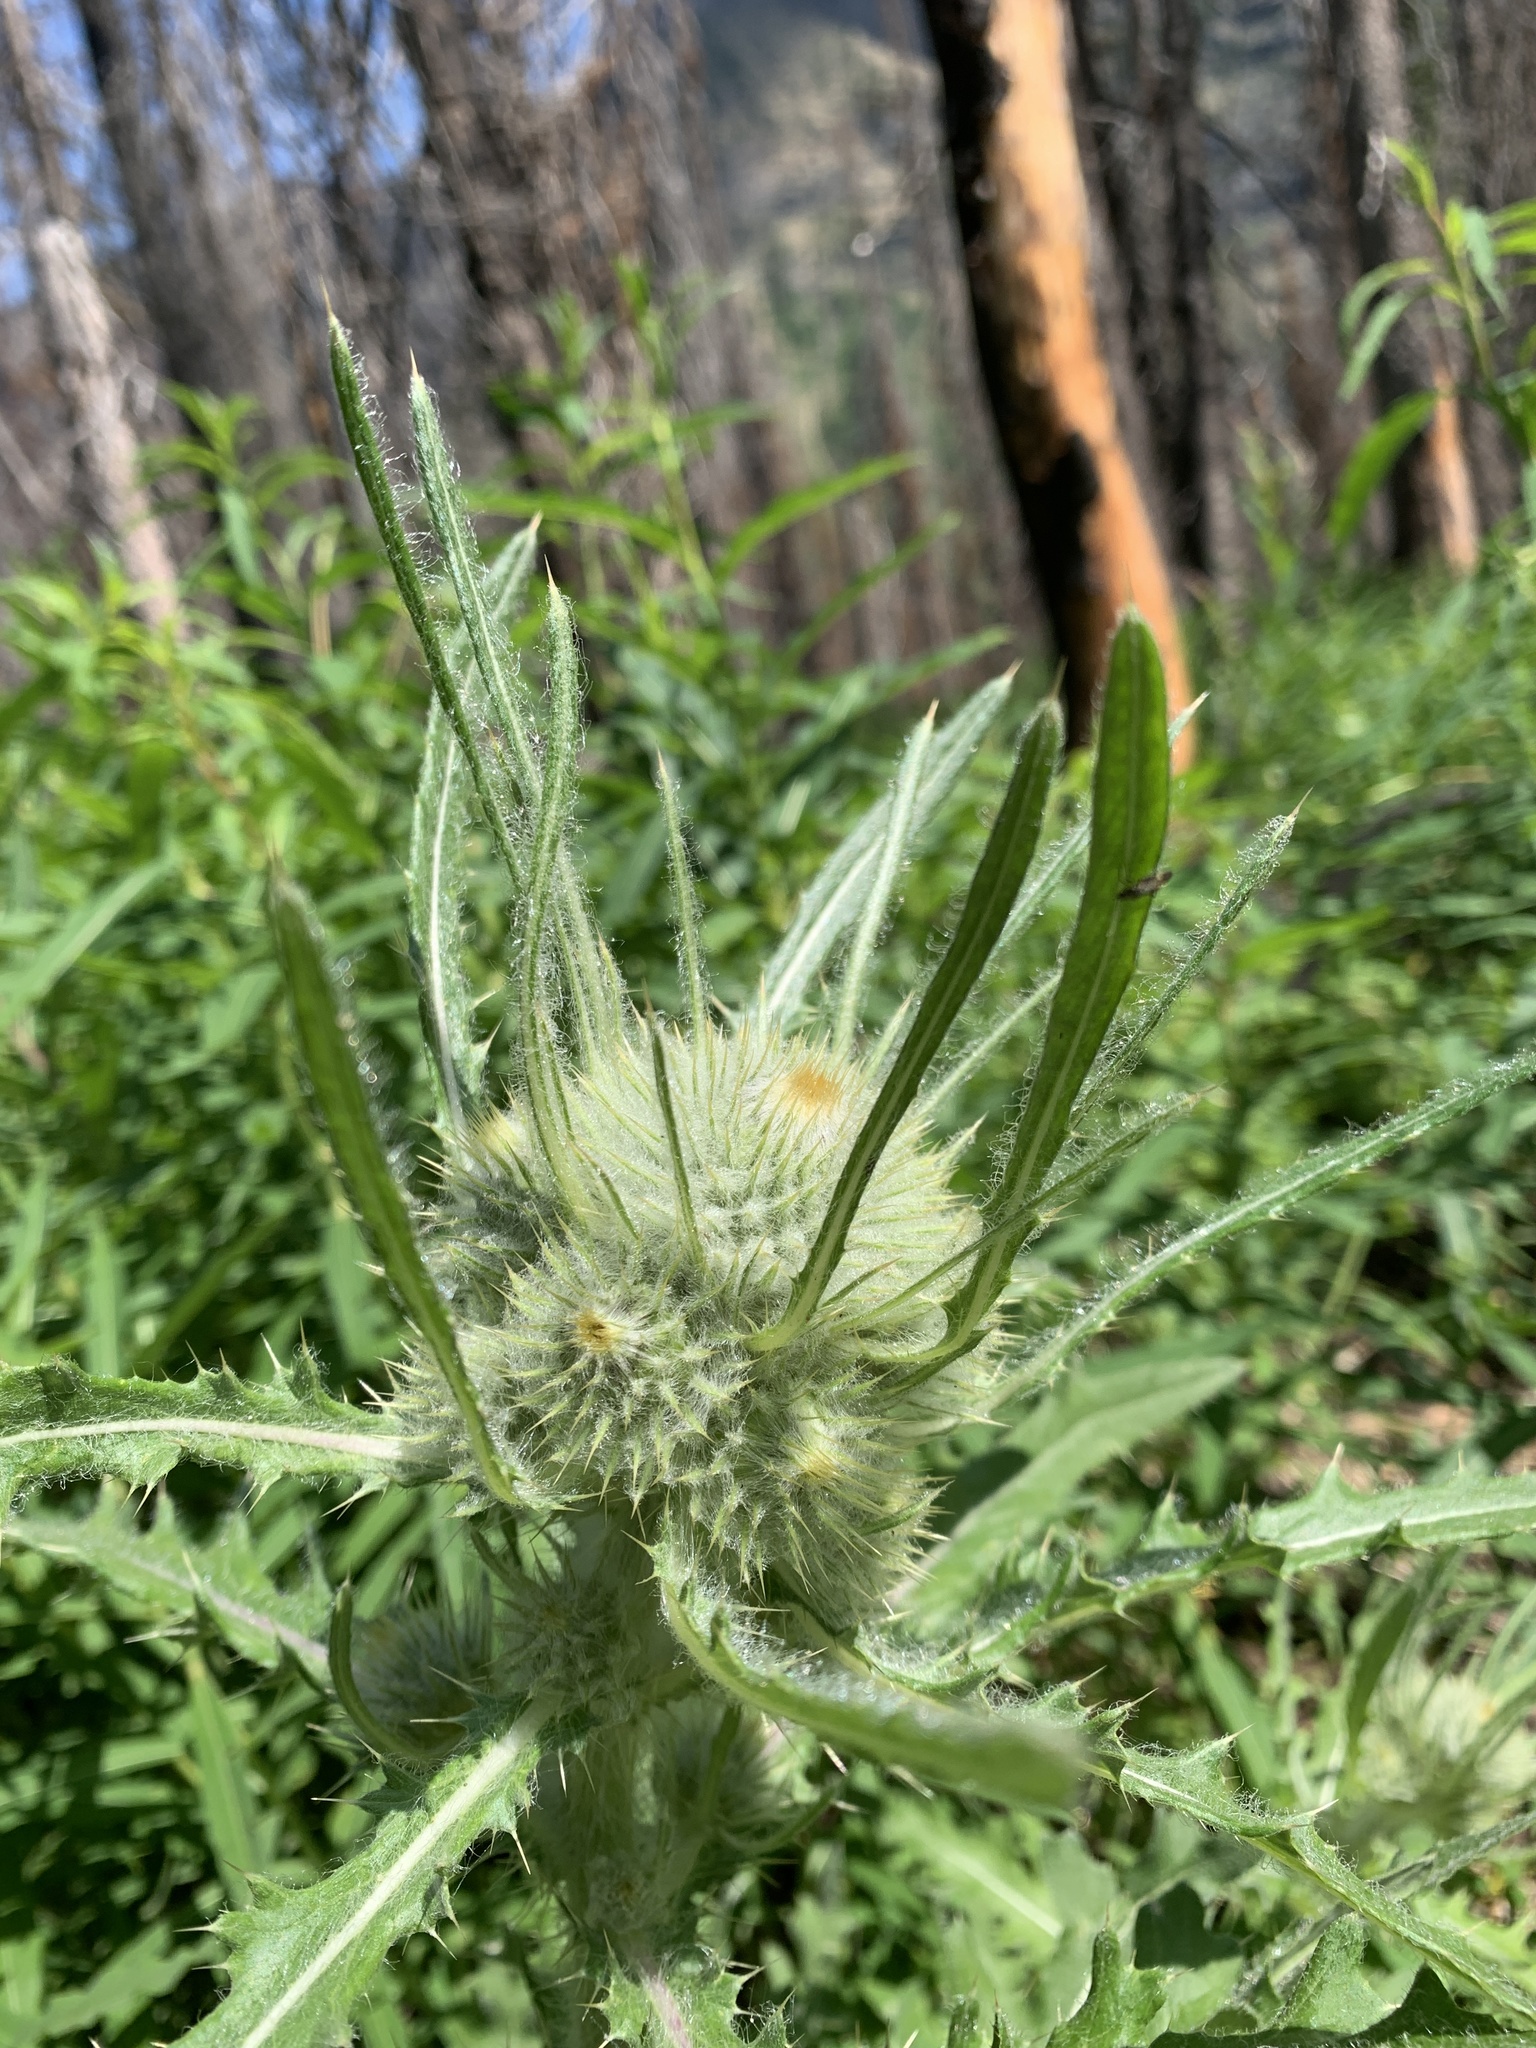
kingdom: Plantae
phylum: Tracheophyta
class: Magnoliopsida
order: Asterales
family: Asteraceae
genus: Cirsium
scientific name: Cirsium hookerianum
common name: Hooker's thistle
